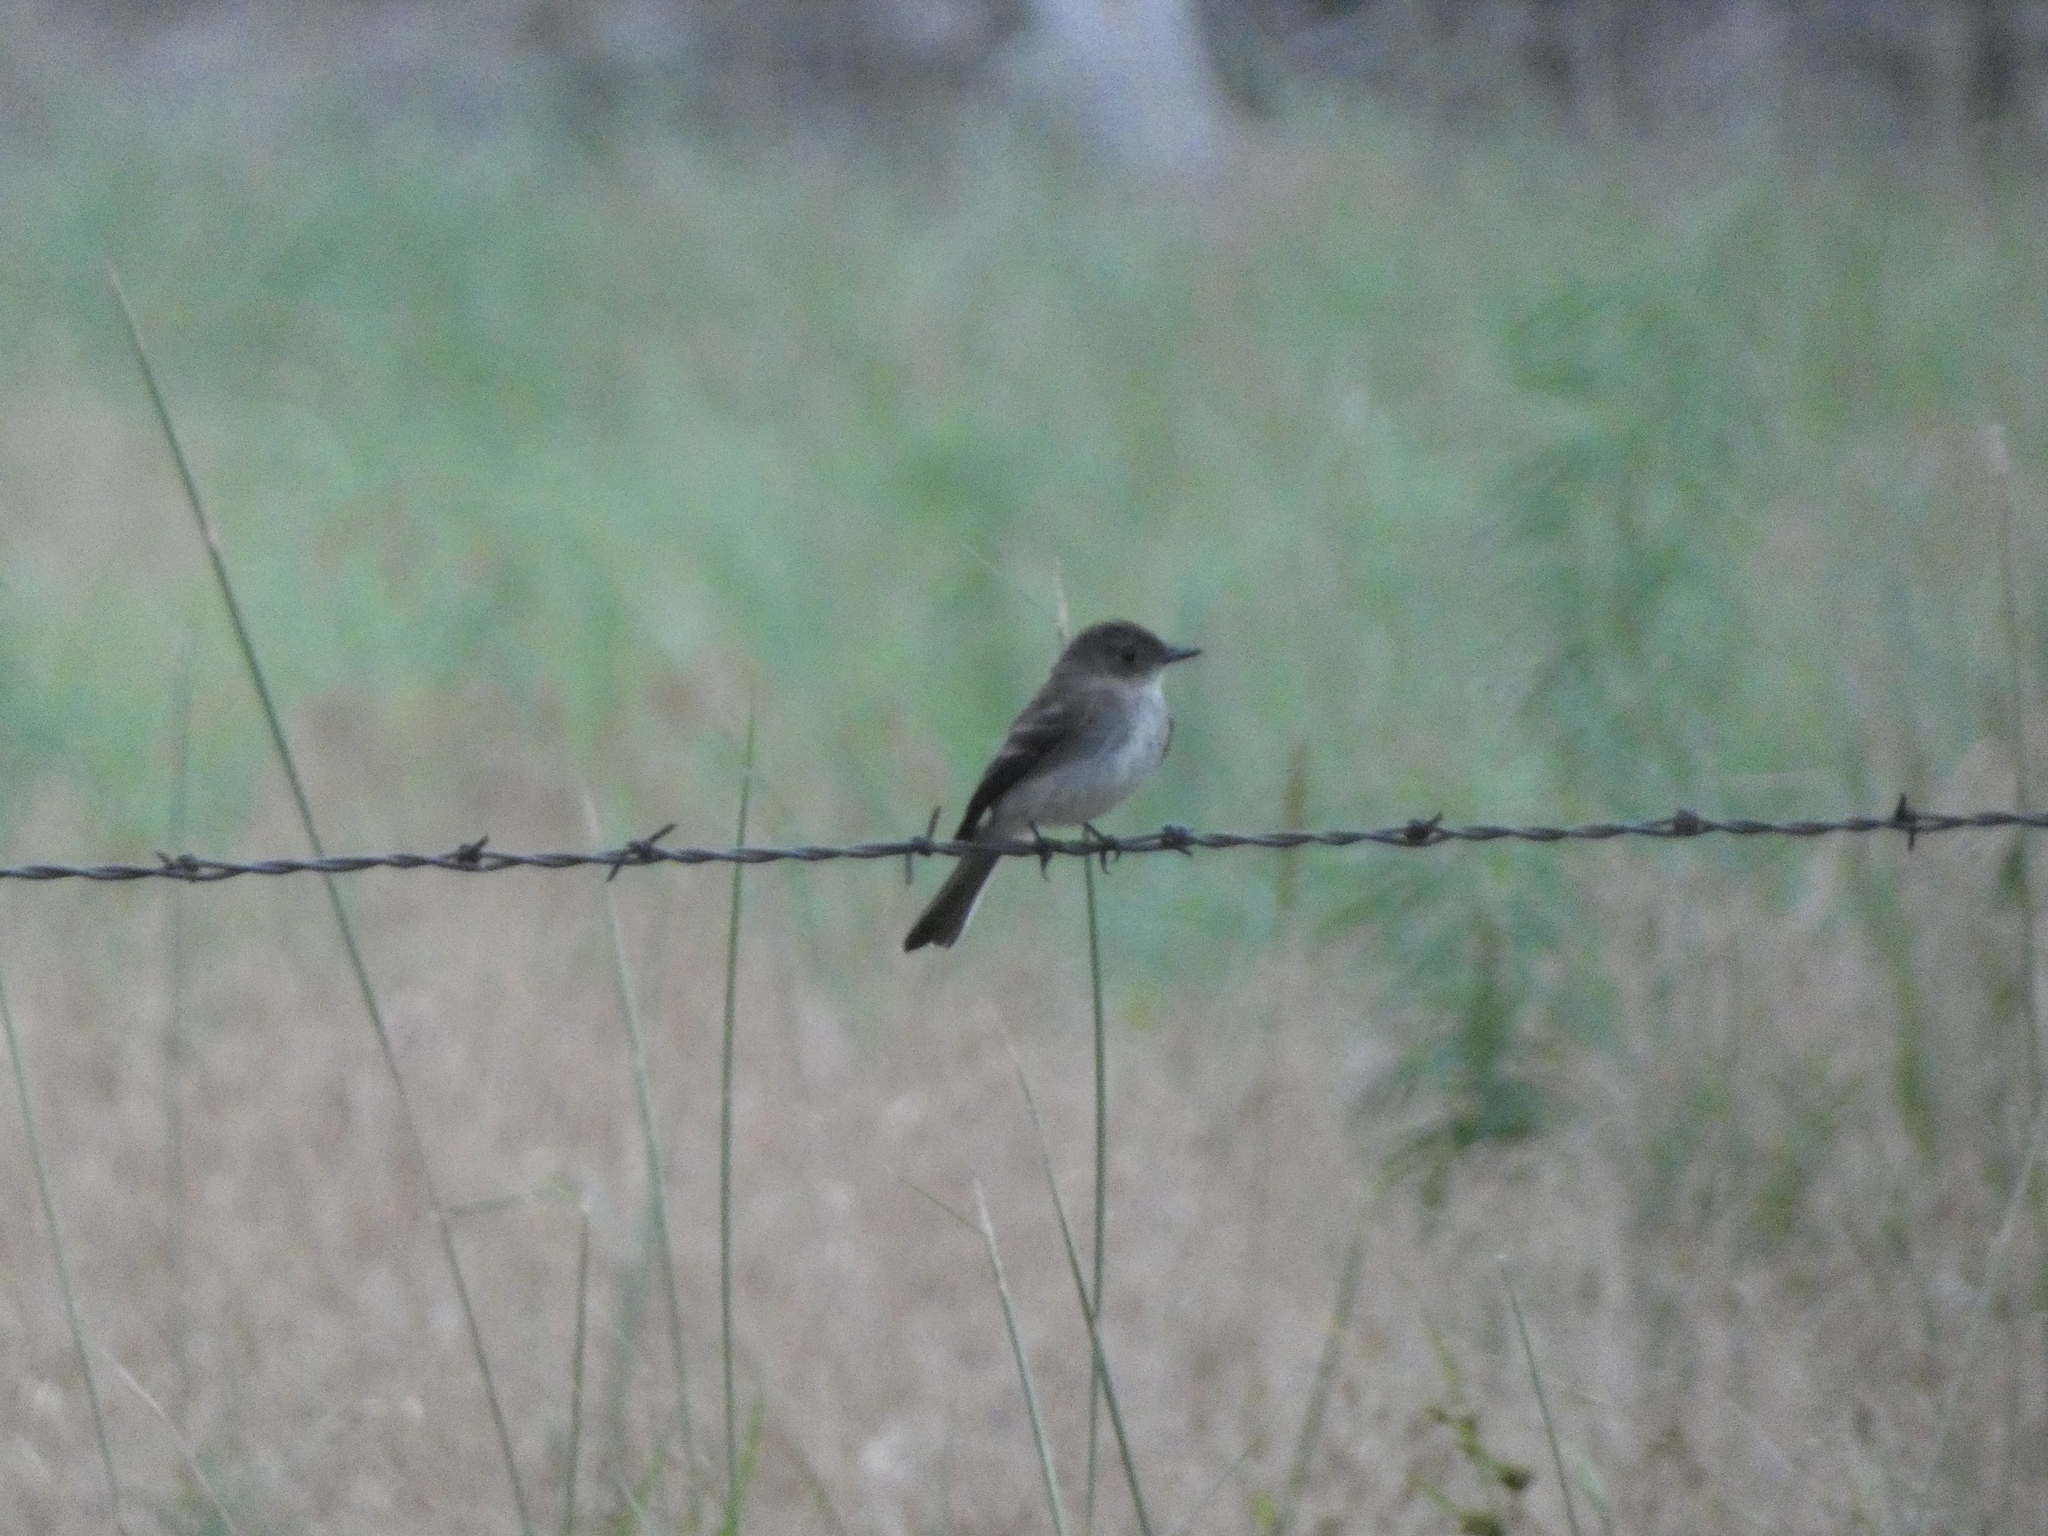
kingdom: Animalia
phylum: Chordata
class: Aves
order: Passeriformes
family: Tyrannidae
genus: Sayornis
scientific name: Sayornis phoebe
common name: Eastern phoebe
